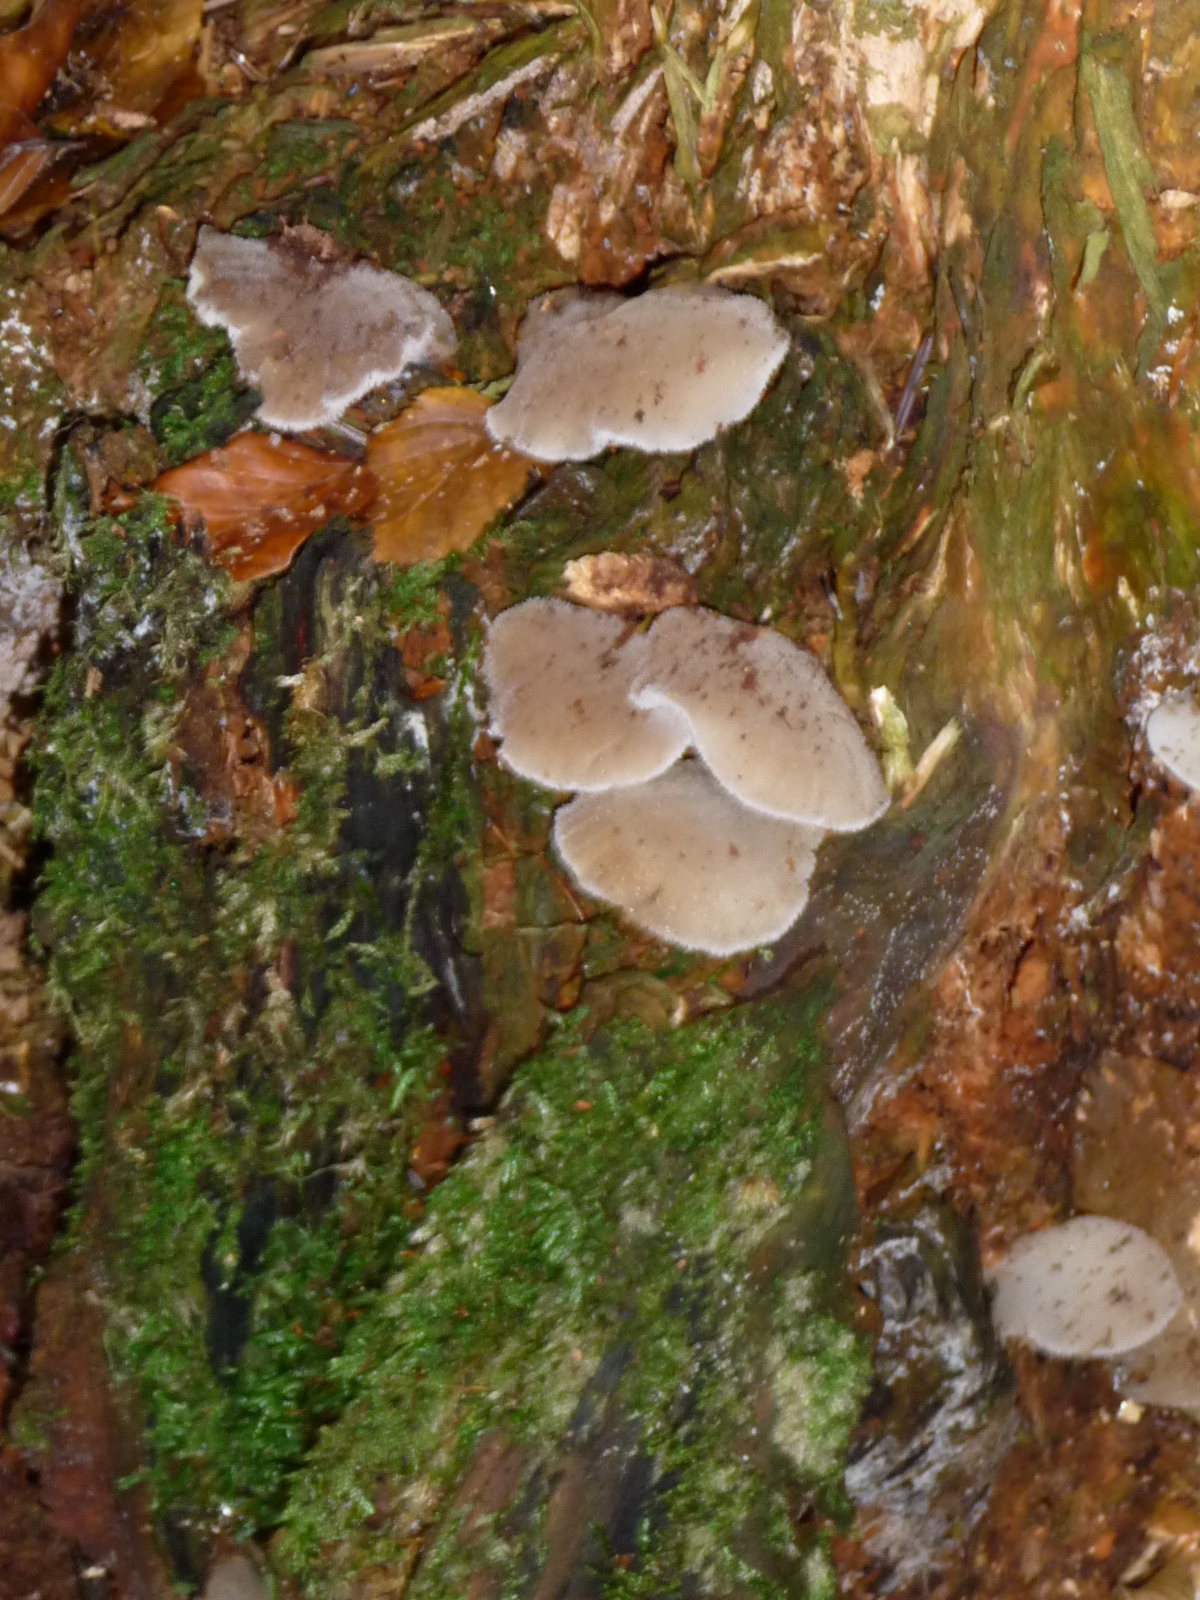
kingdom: Fungi
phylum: Basidiomycota
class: Agaricomycetes
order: Auriculariales
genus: Pseudohydnum
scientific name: Pseudohydnum gelatinosum
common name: Jelly tongue
